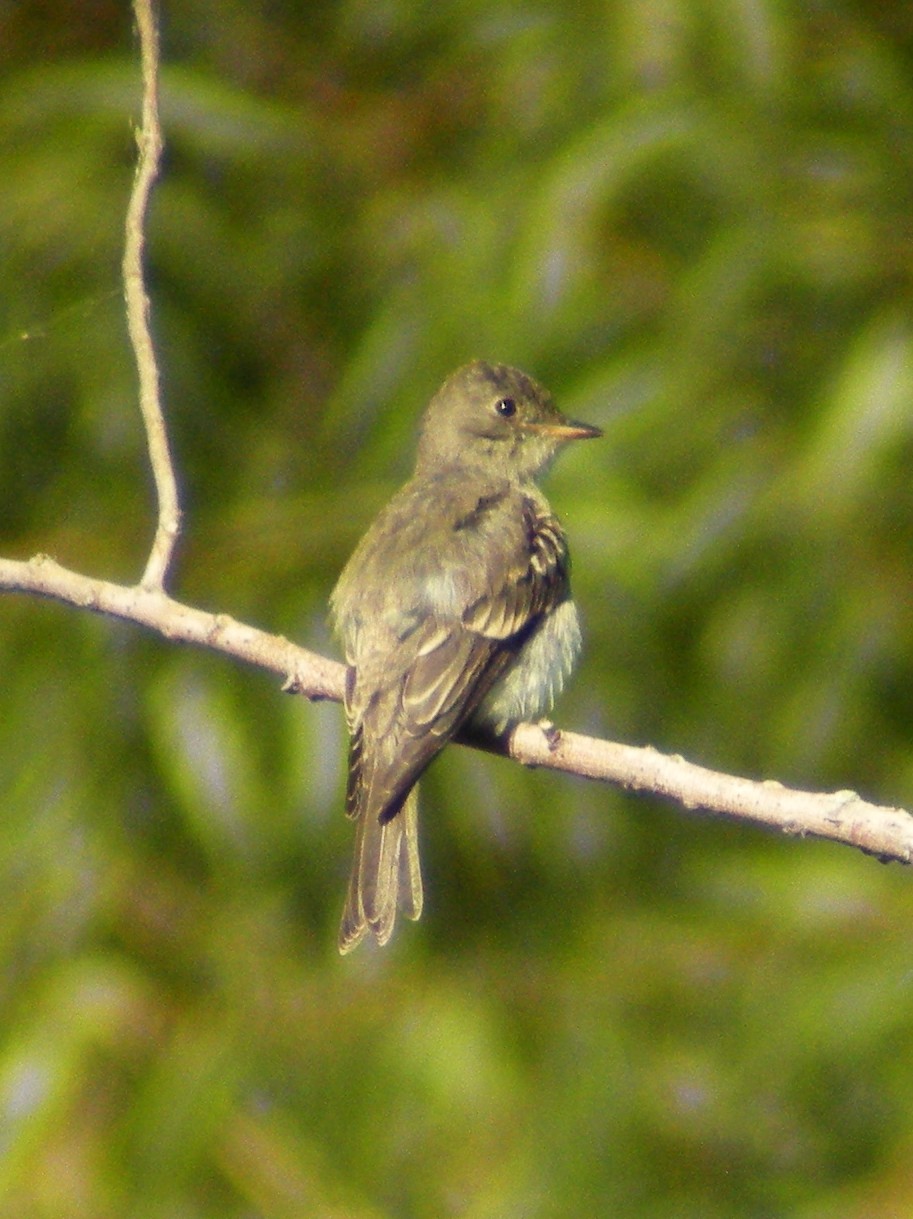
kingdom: Animalia
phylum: Chordata
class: Aves
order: Passeriformes
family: Tyrannidae
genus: Contopus
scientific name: Contopus virens
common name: Eastern wood-pewee
